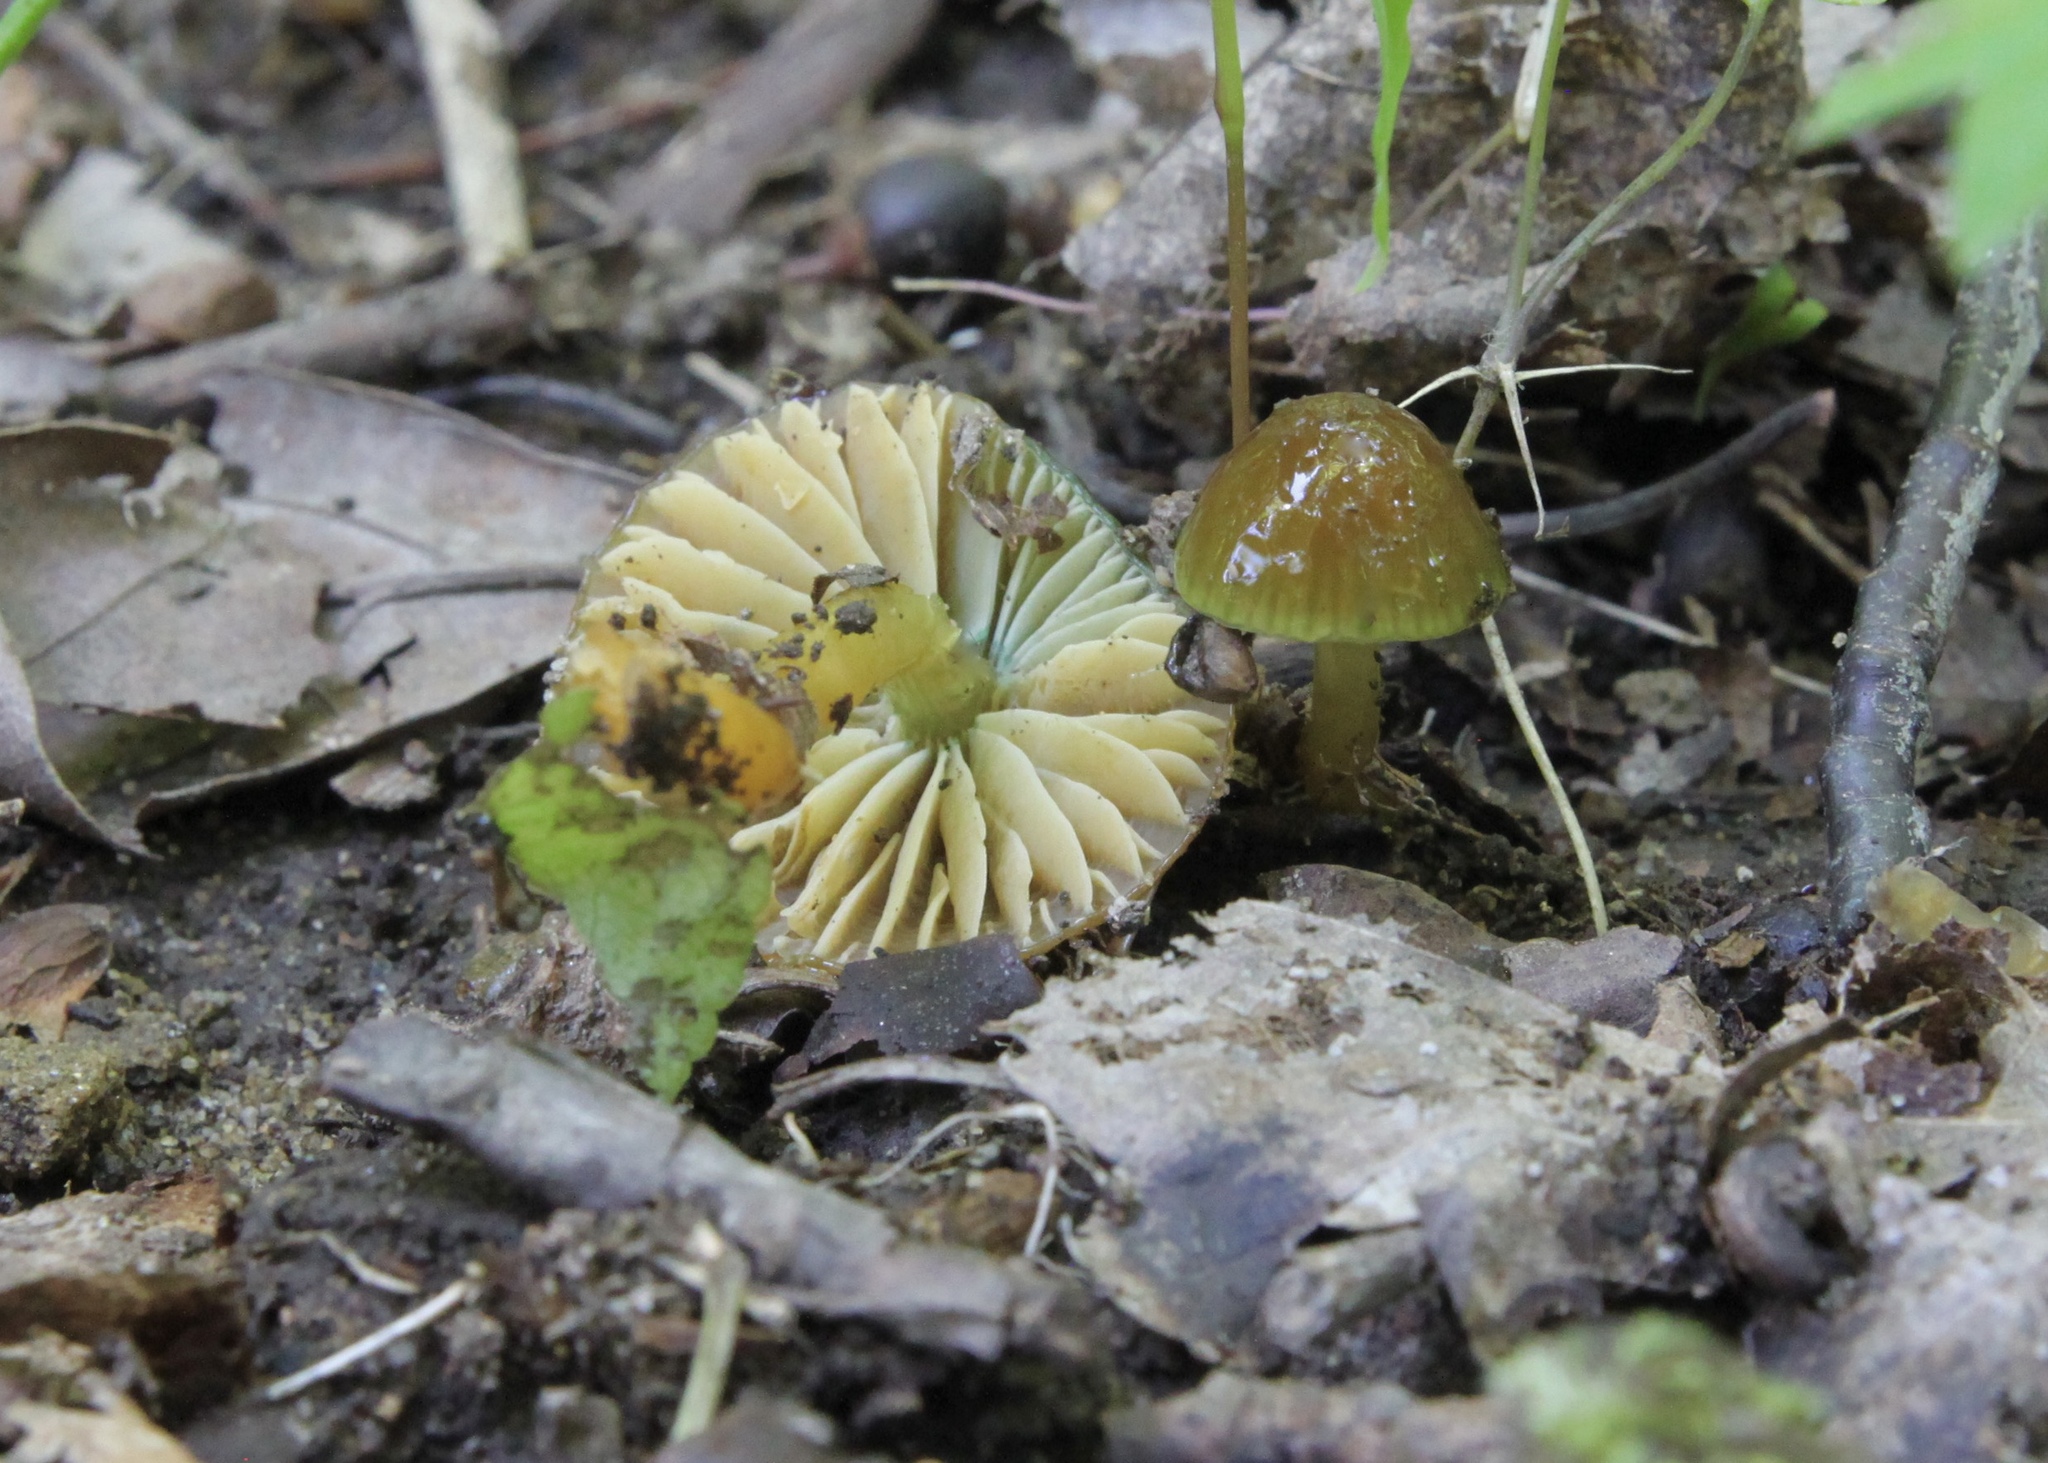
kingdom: Fungi
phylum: Basidiomycota
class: Agaricomycetes
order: Agaricales
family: Hygrophoraceae
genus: Gliophorus
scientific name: Gliophorus psittacinus
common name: Parrot wax-cap
